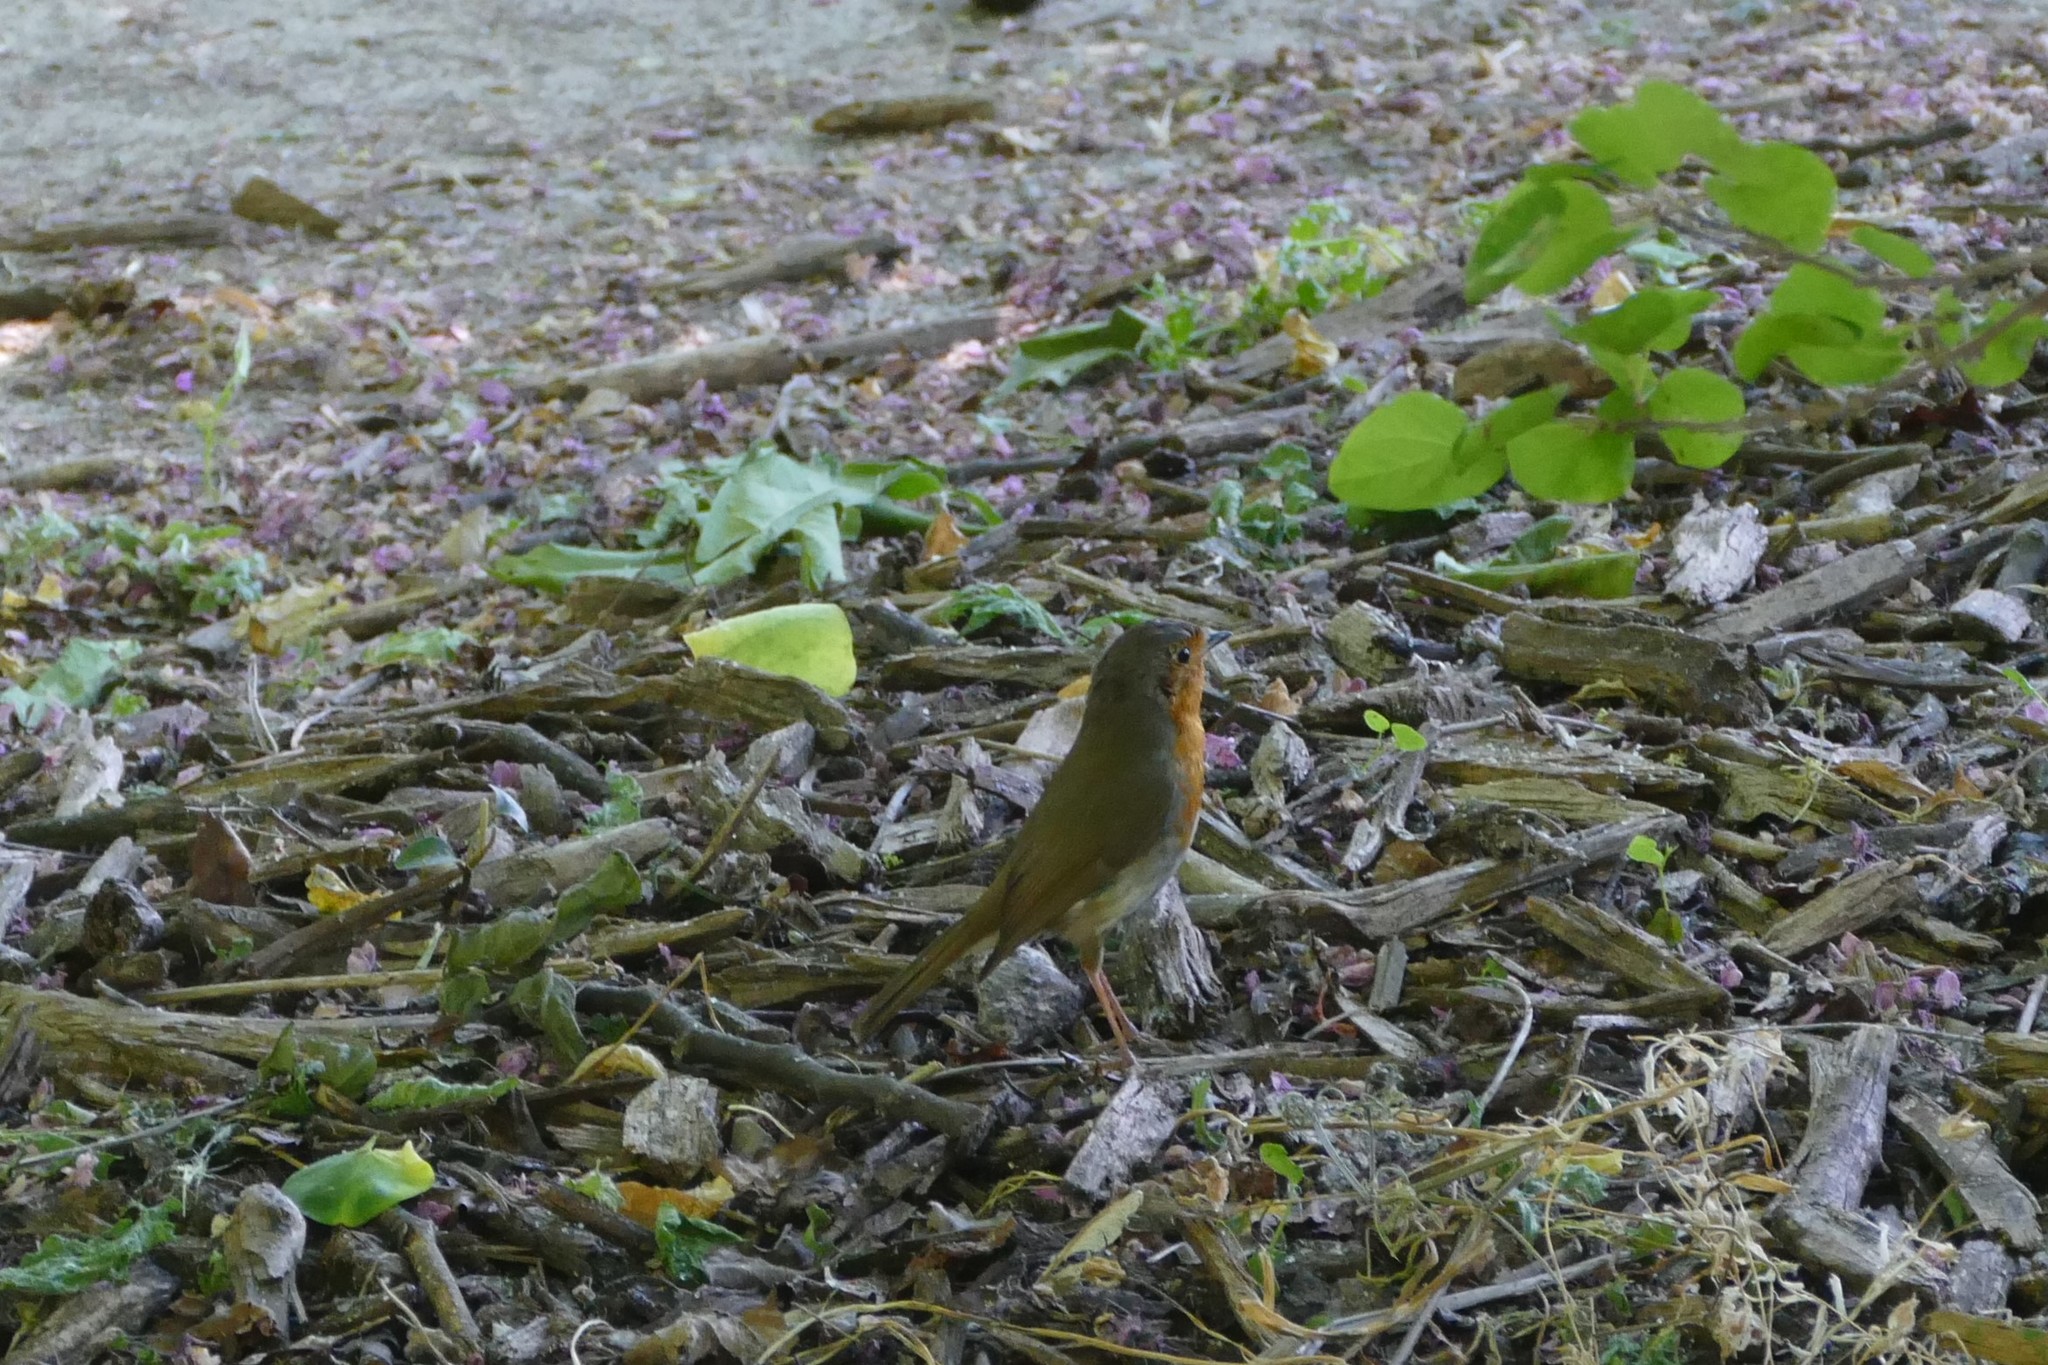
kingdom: Animalia
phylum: Chordata
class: Aves
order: Passeriformes
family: Muscicapidae
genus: Erithacus
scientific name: Erithacus rubecula
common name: European robin
